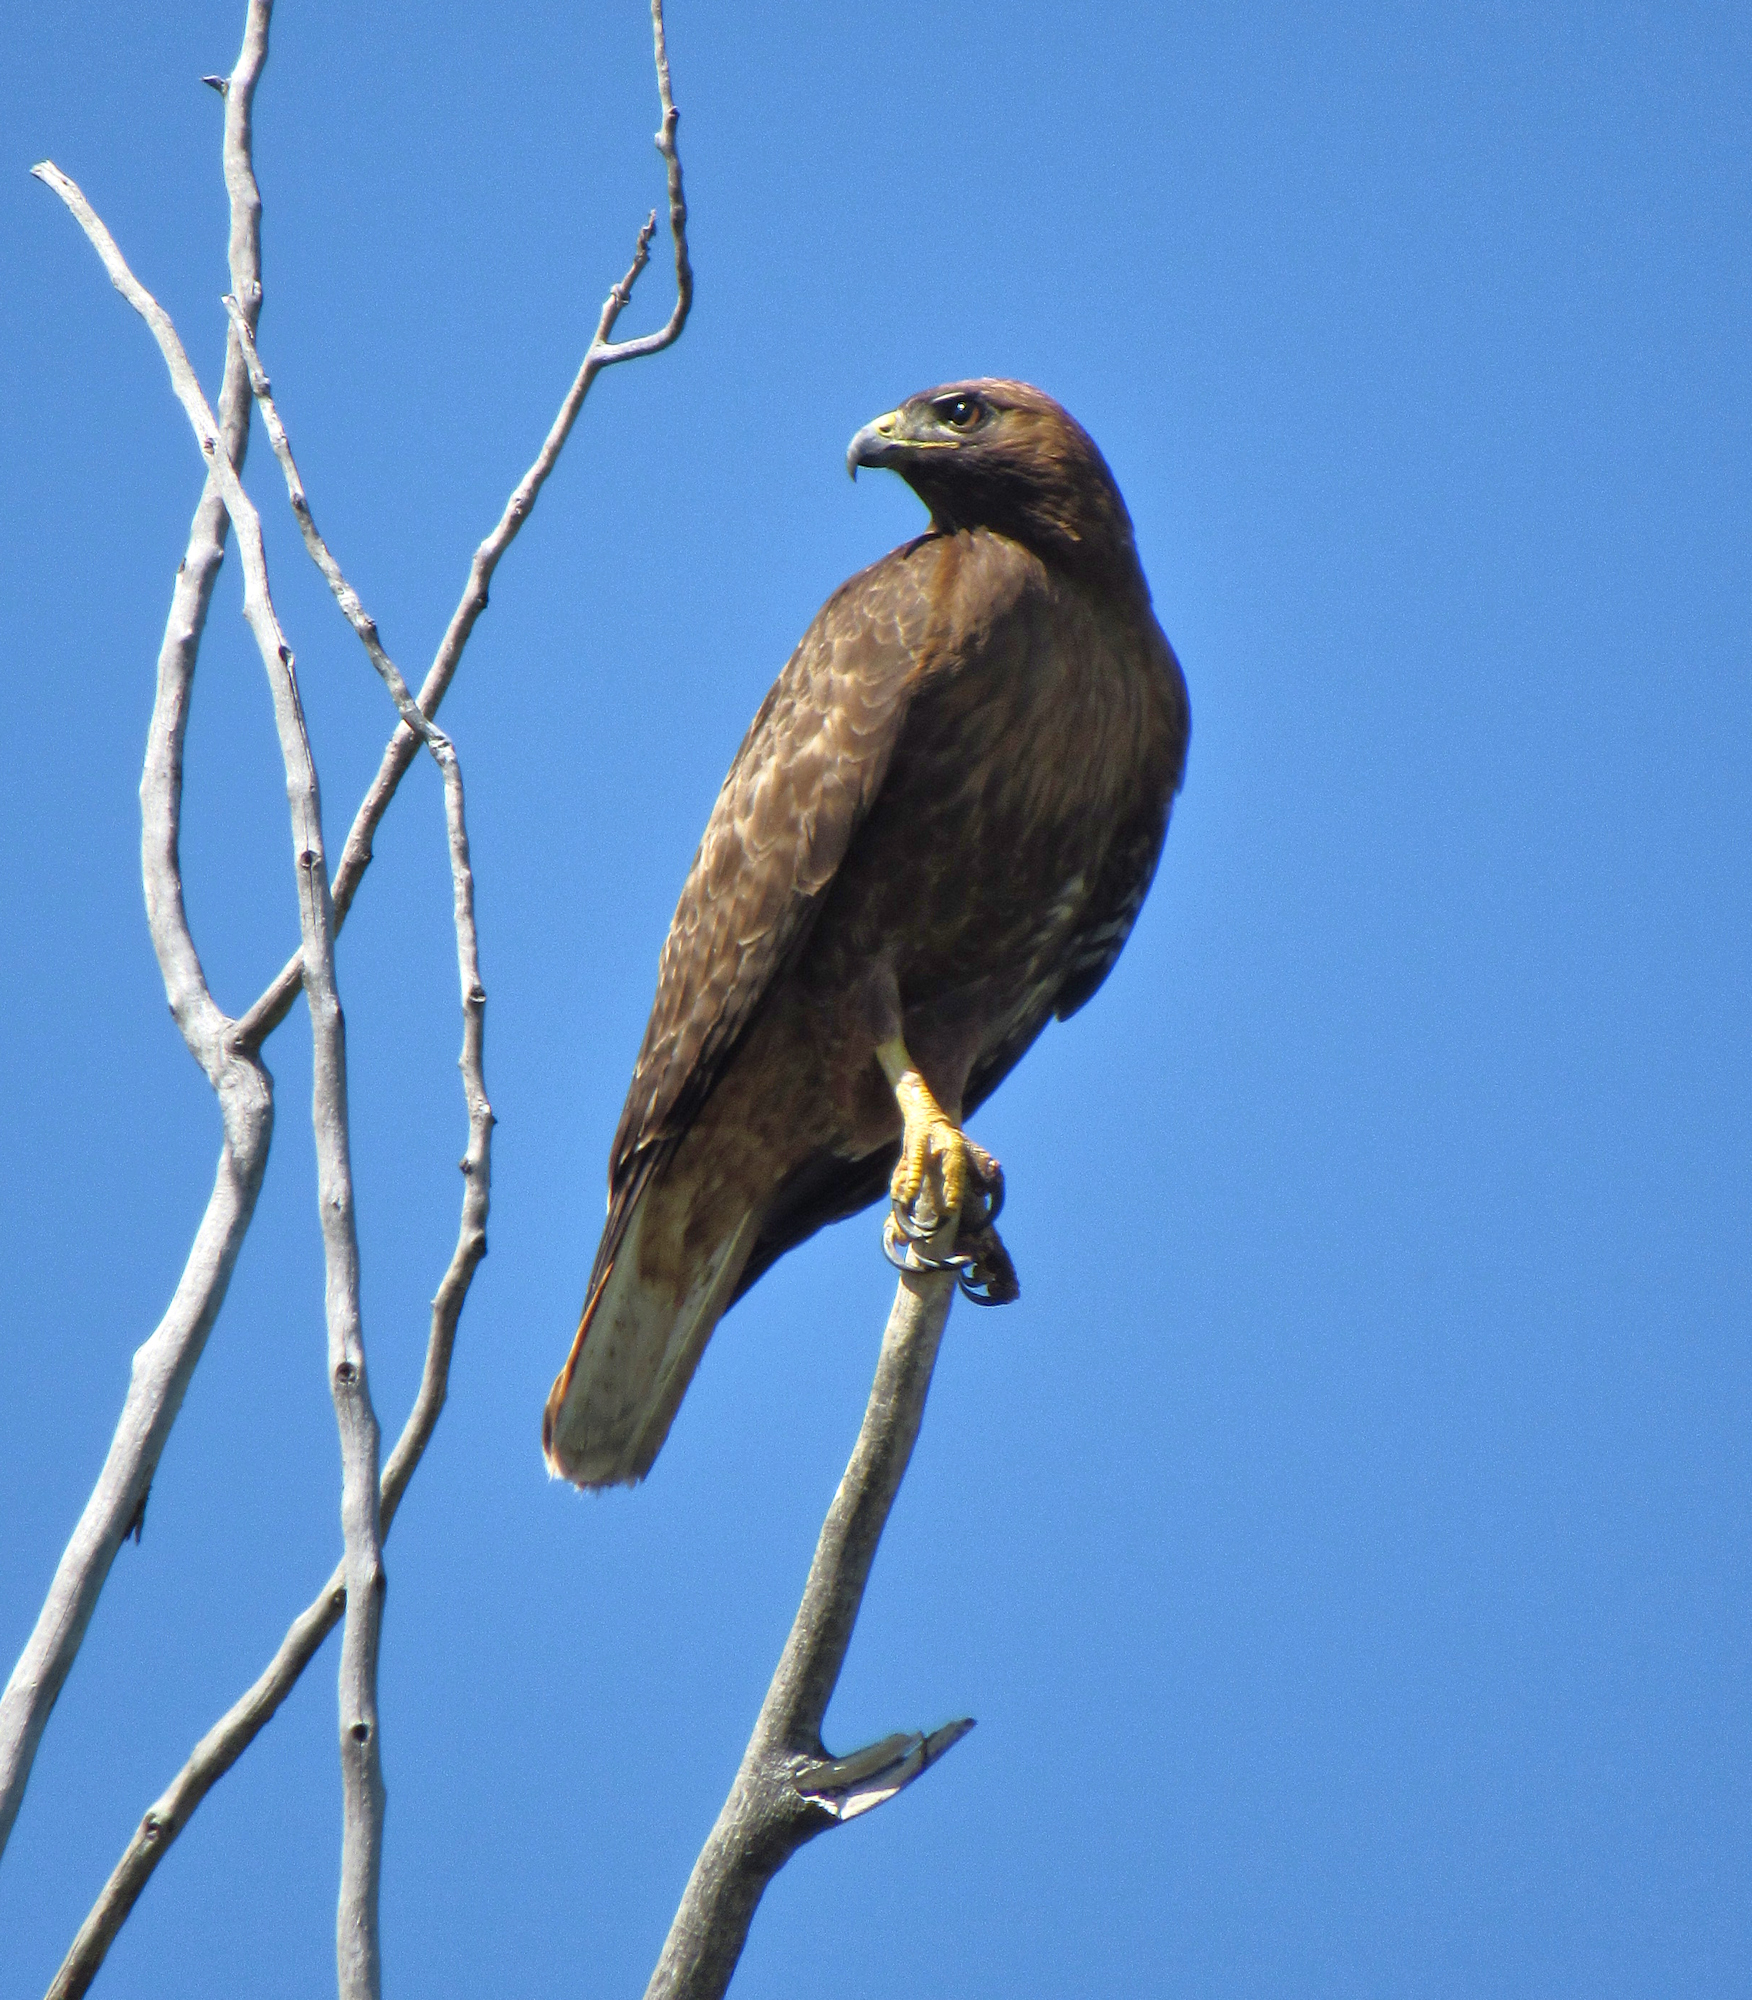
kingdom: Animalia
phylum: Chordata
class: Aves
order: Accipitriformes
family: Accipitridae
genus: Buteo
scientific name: Buteo jamaicensis
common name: Red-tailed hawk
